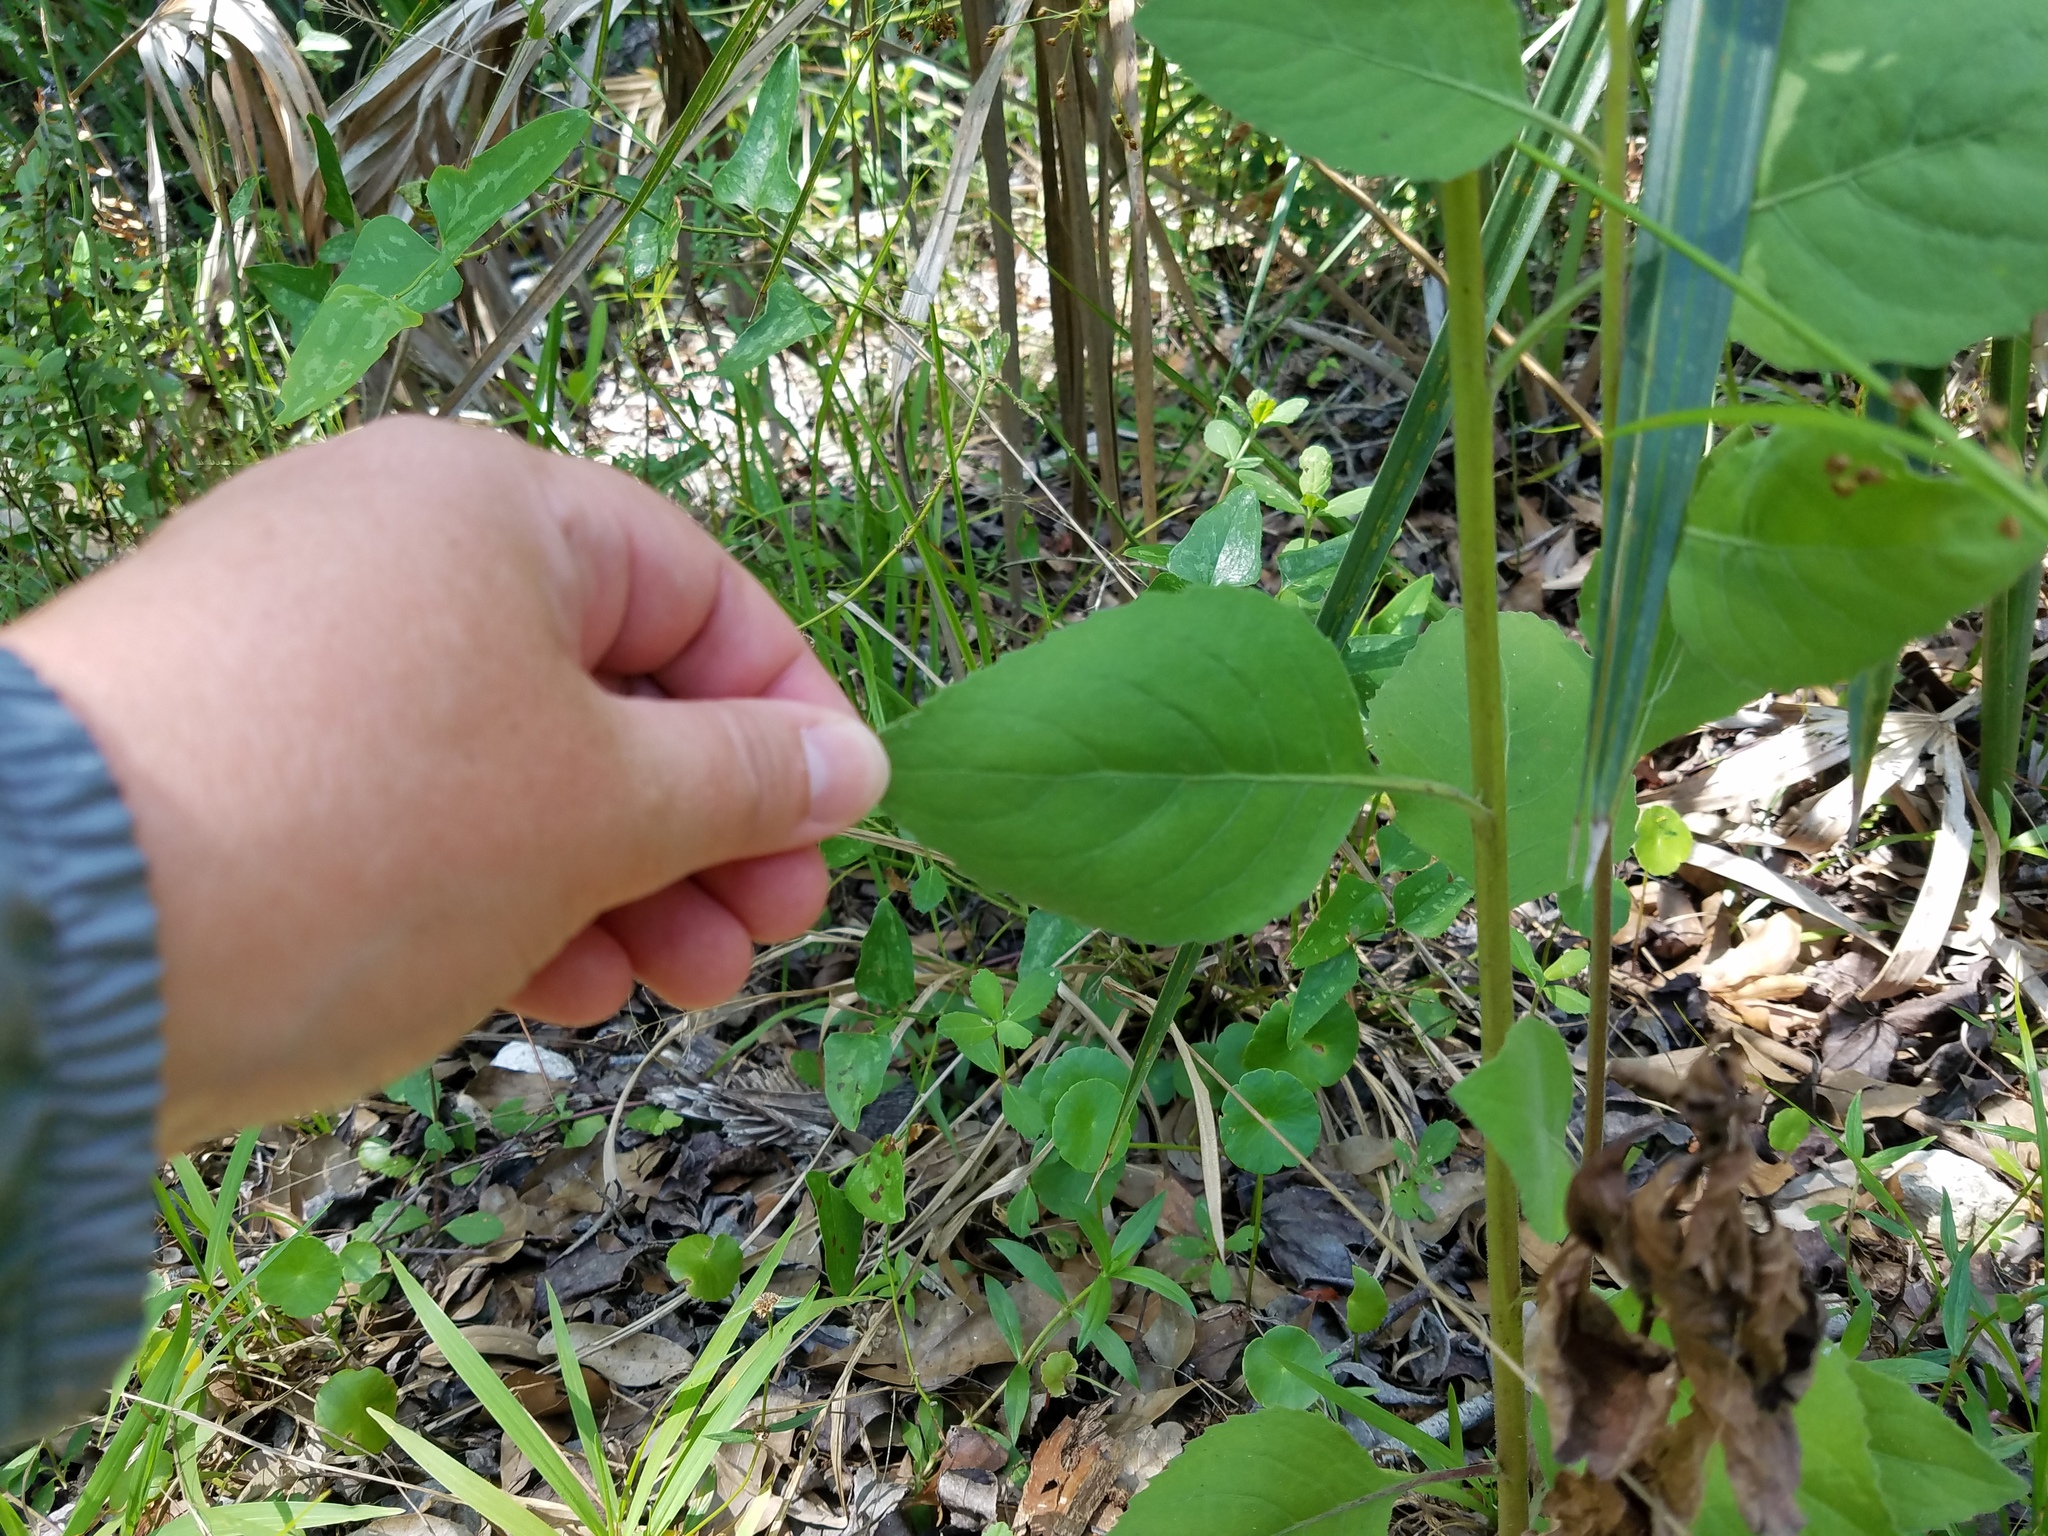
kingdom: Plantae
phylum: Tracheophyta
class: Magnoliopsida
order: Asterales
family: Asteraceae
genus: Pluchea
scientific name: Pluchea odorata
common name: Saltmarsh fleabane
